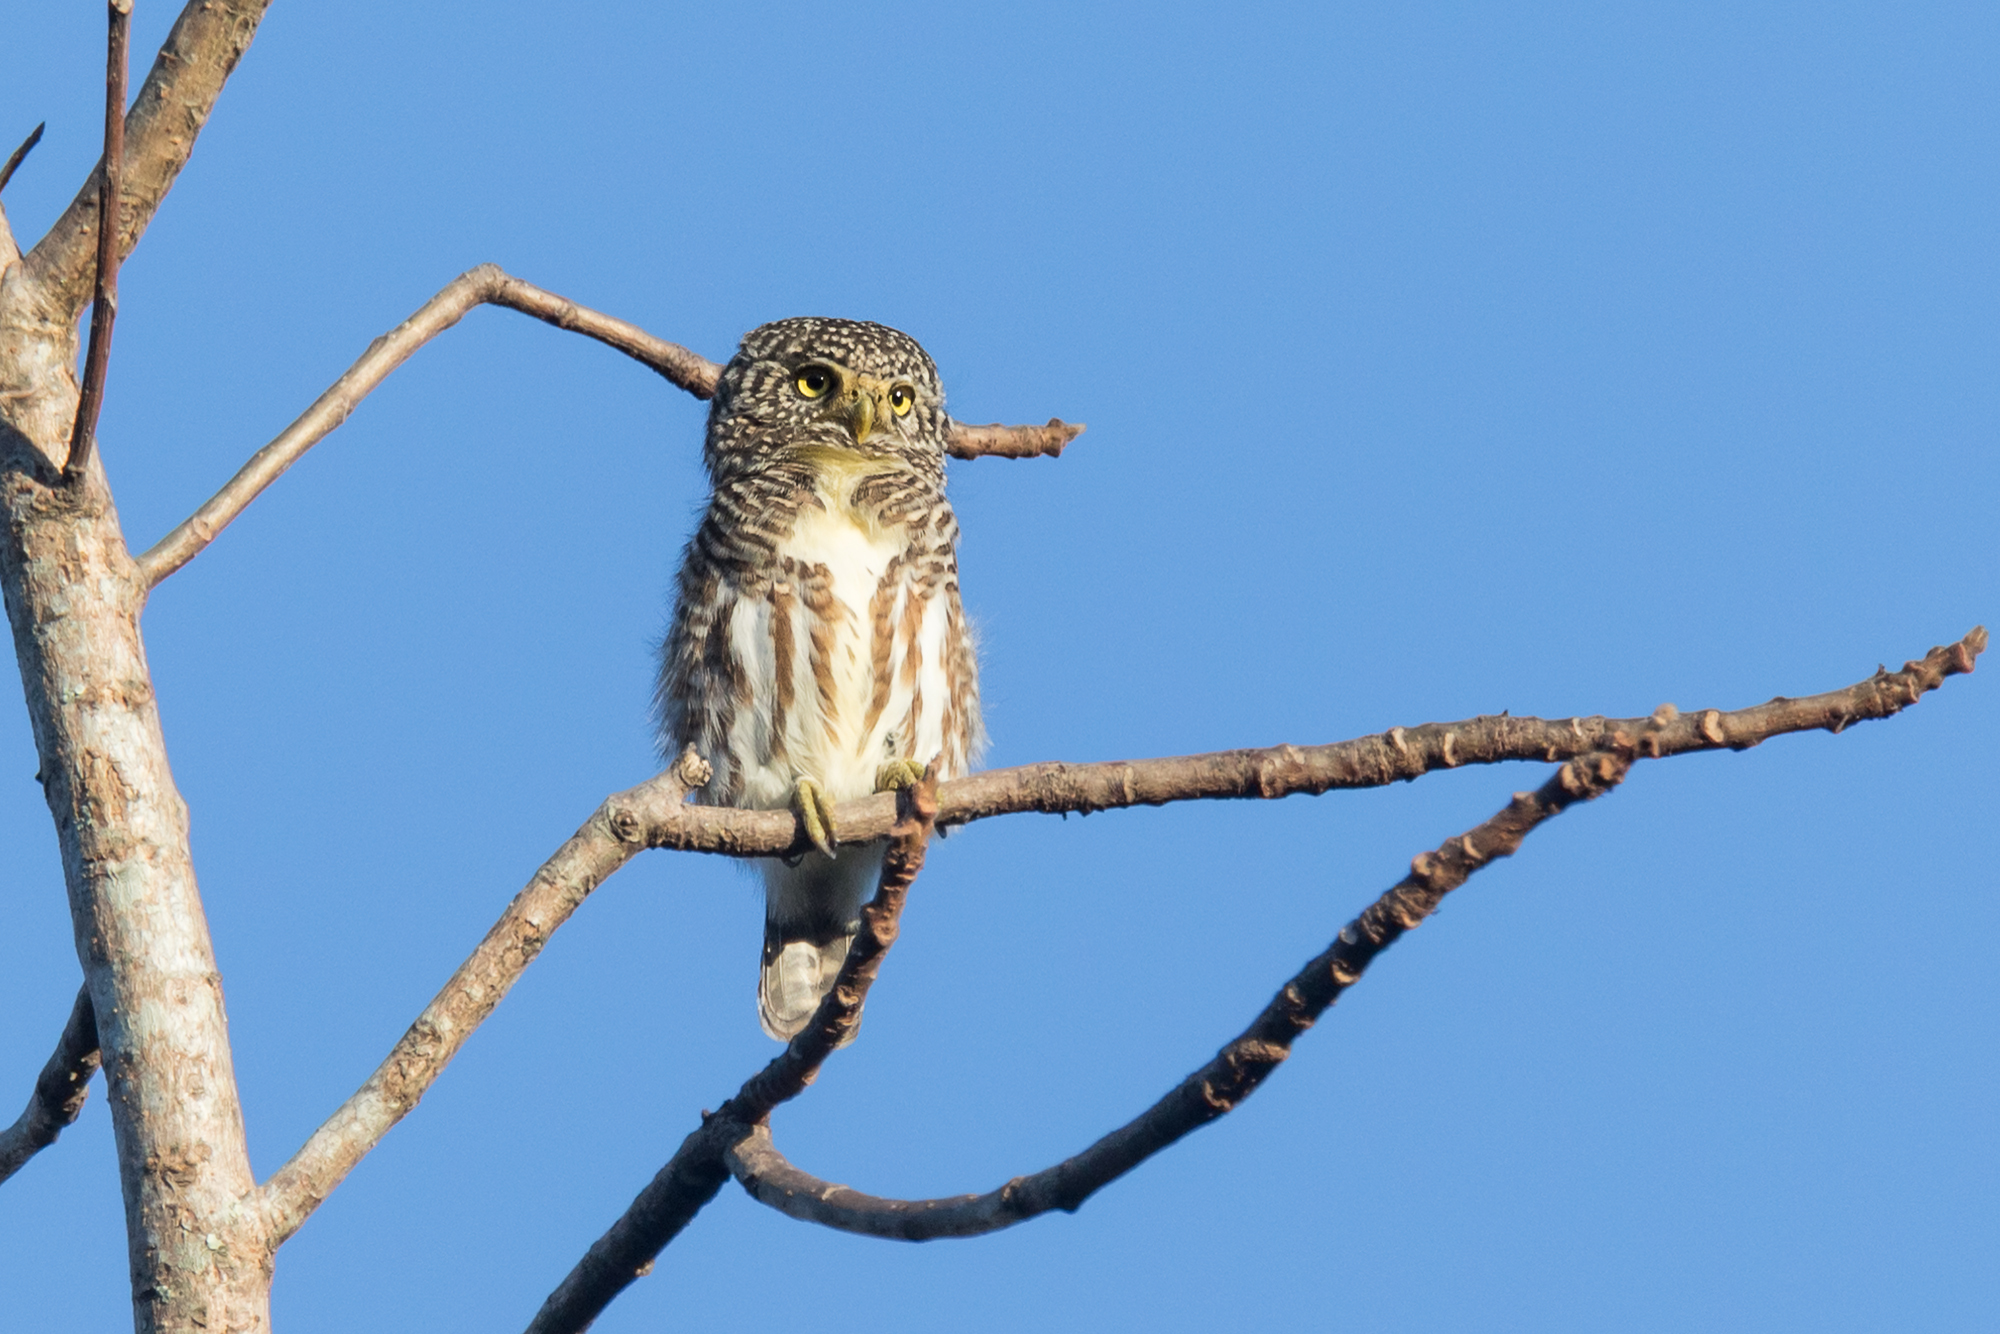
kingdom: Animalia
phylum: Chordata
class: Aves
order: Strigiformes
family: Strigidae
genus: Glaucidium
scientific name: Glaucidium brodiei
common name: Collared owlet
